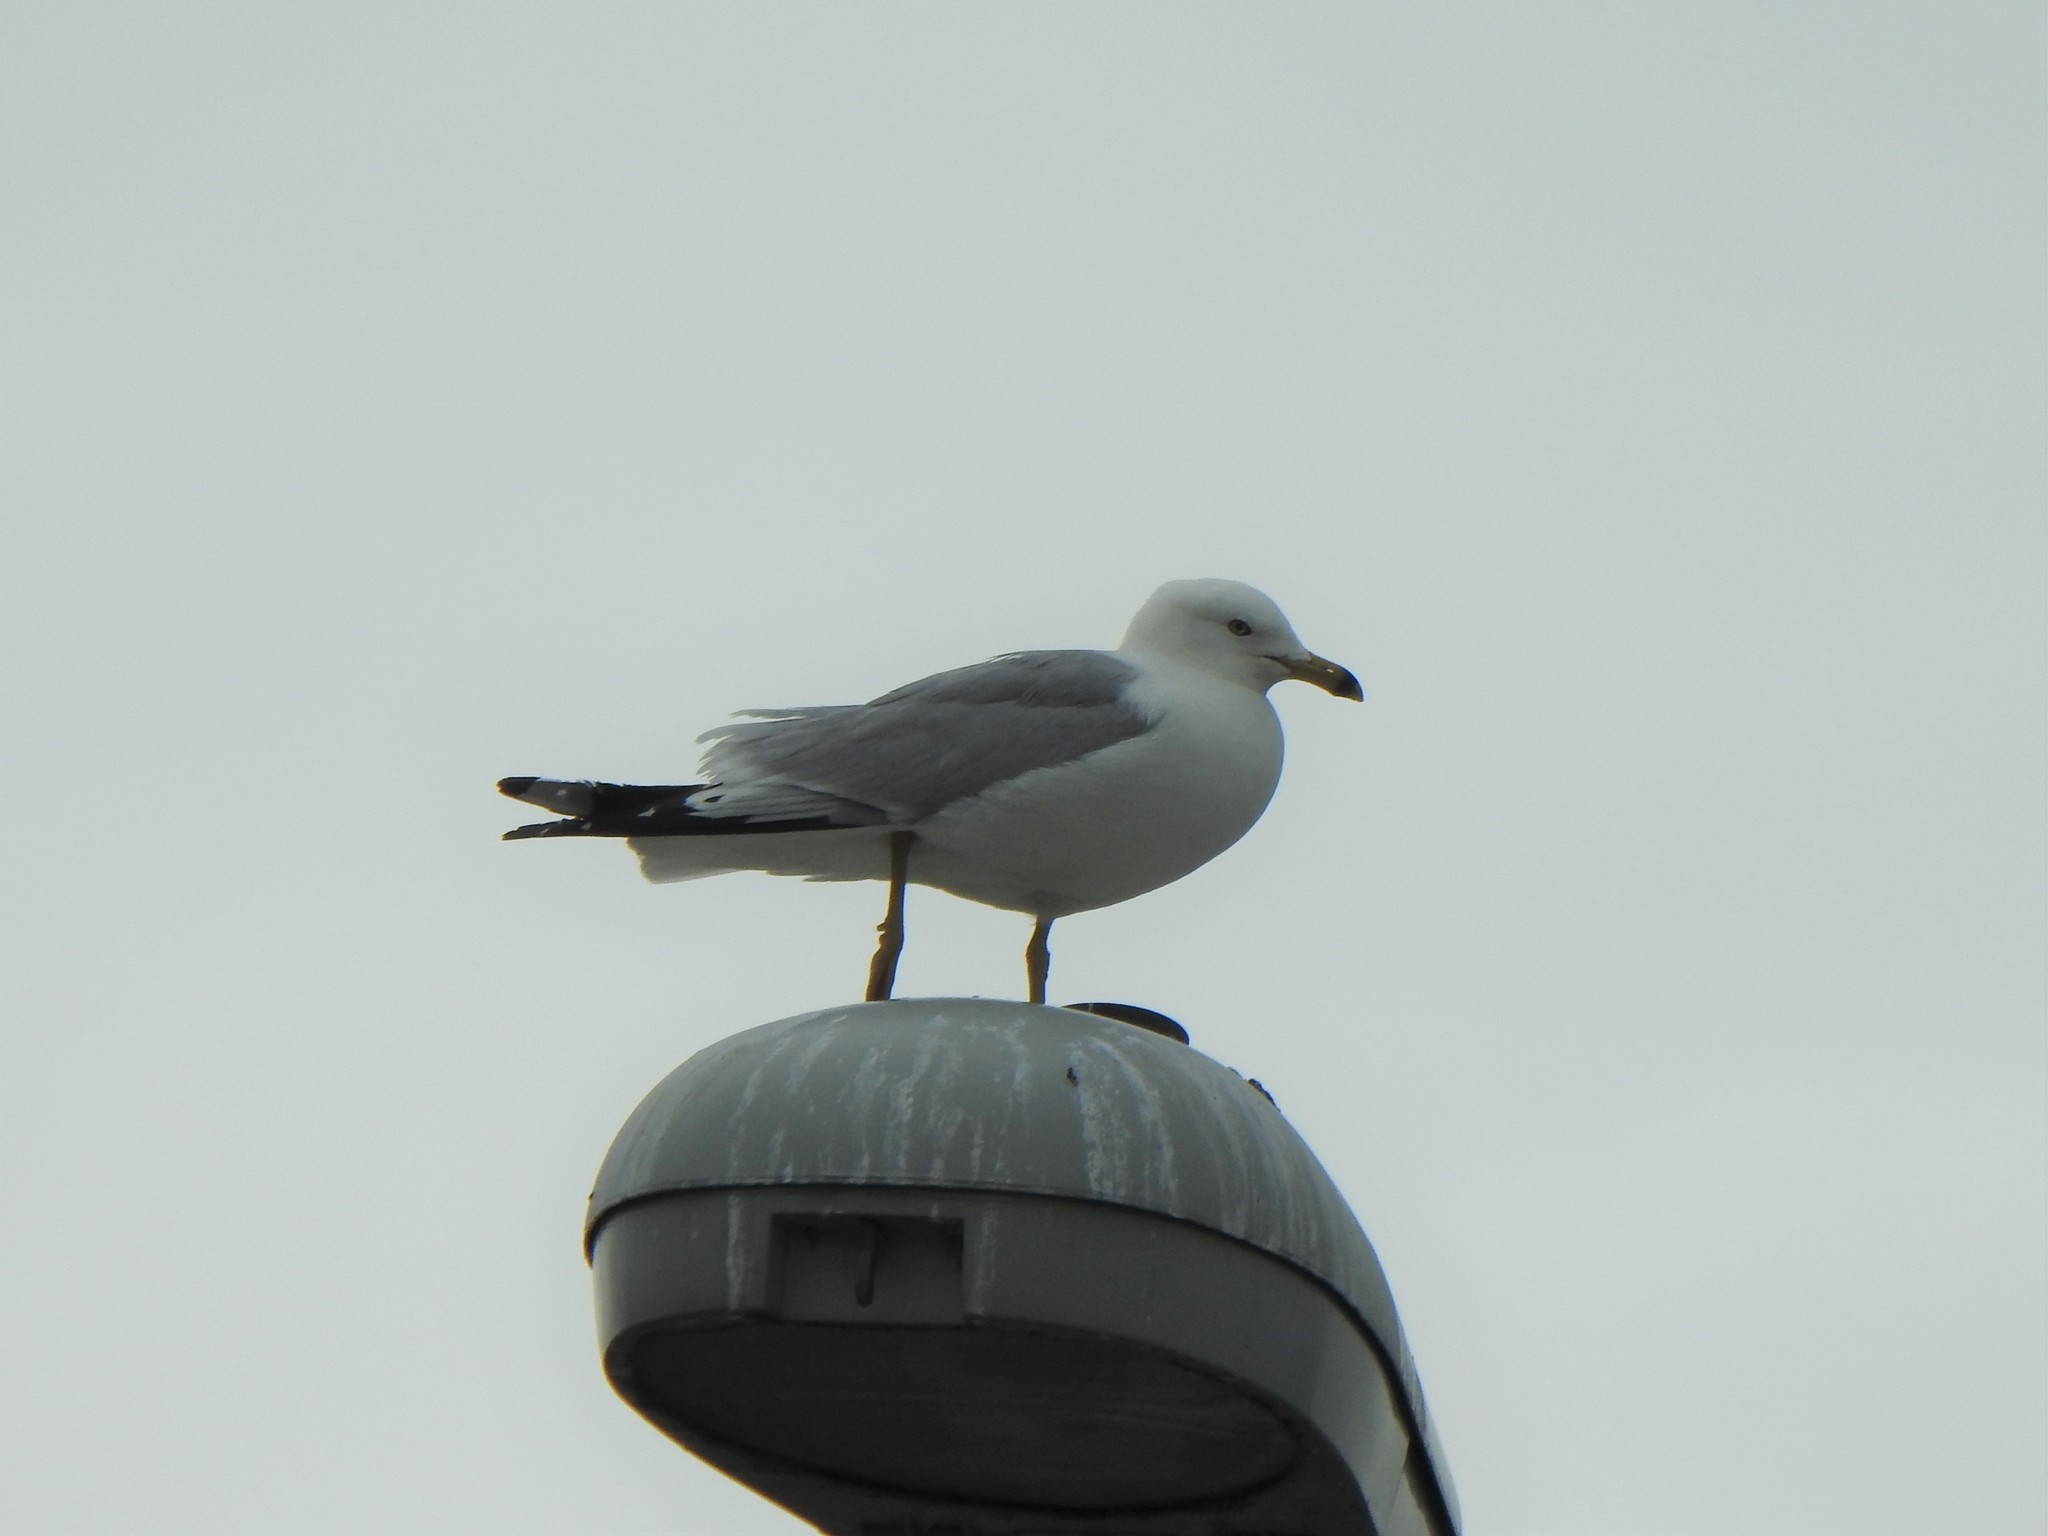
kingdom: Animalia
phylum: Chordata
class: Aves
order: Charadriiformes
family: Laridae
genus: Larus
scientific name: Larus delawarensis
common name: Ring-billed gull
